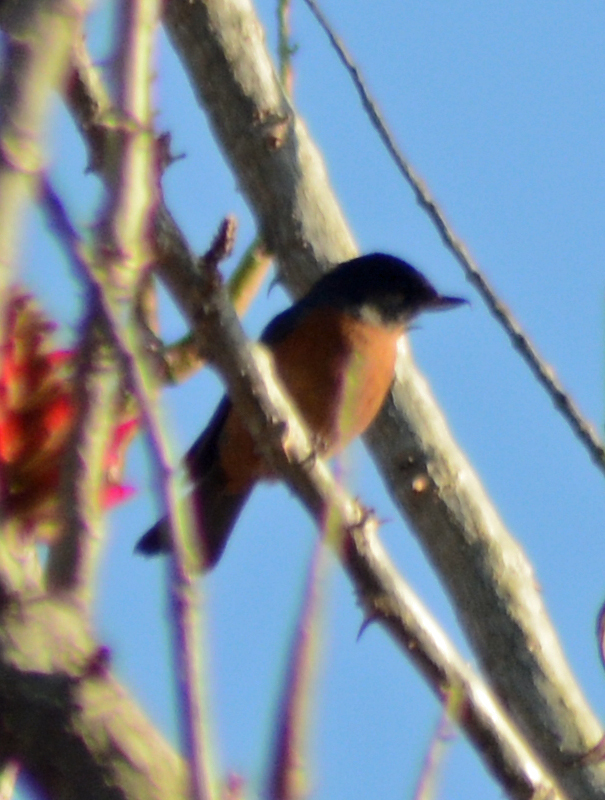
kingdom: Animalia
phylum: Chordata
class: Aves
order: Passeriformes
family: Thraupidae
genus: Diglossa
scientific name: Diglossa baritula
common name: Cinnamon-bellied flowerpiercer
